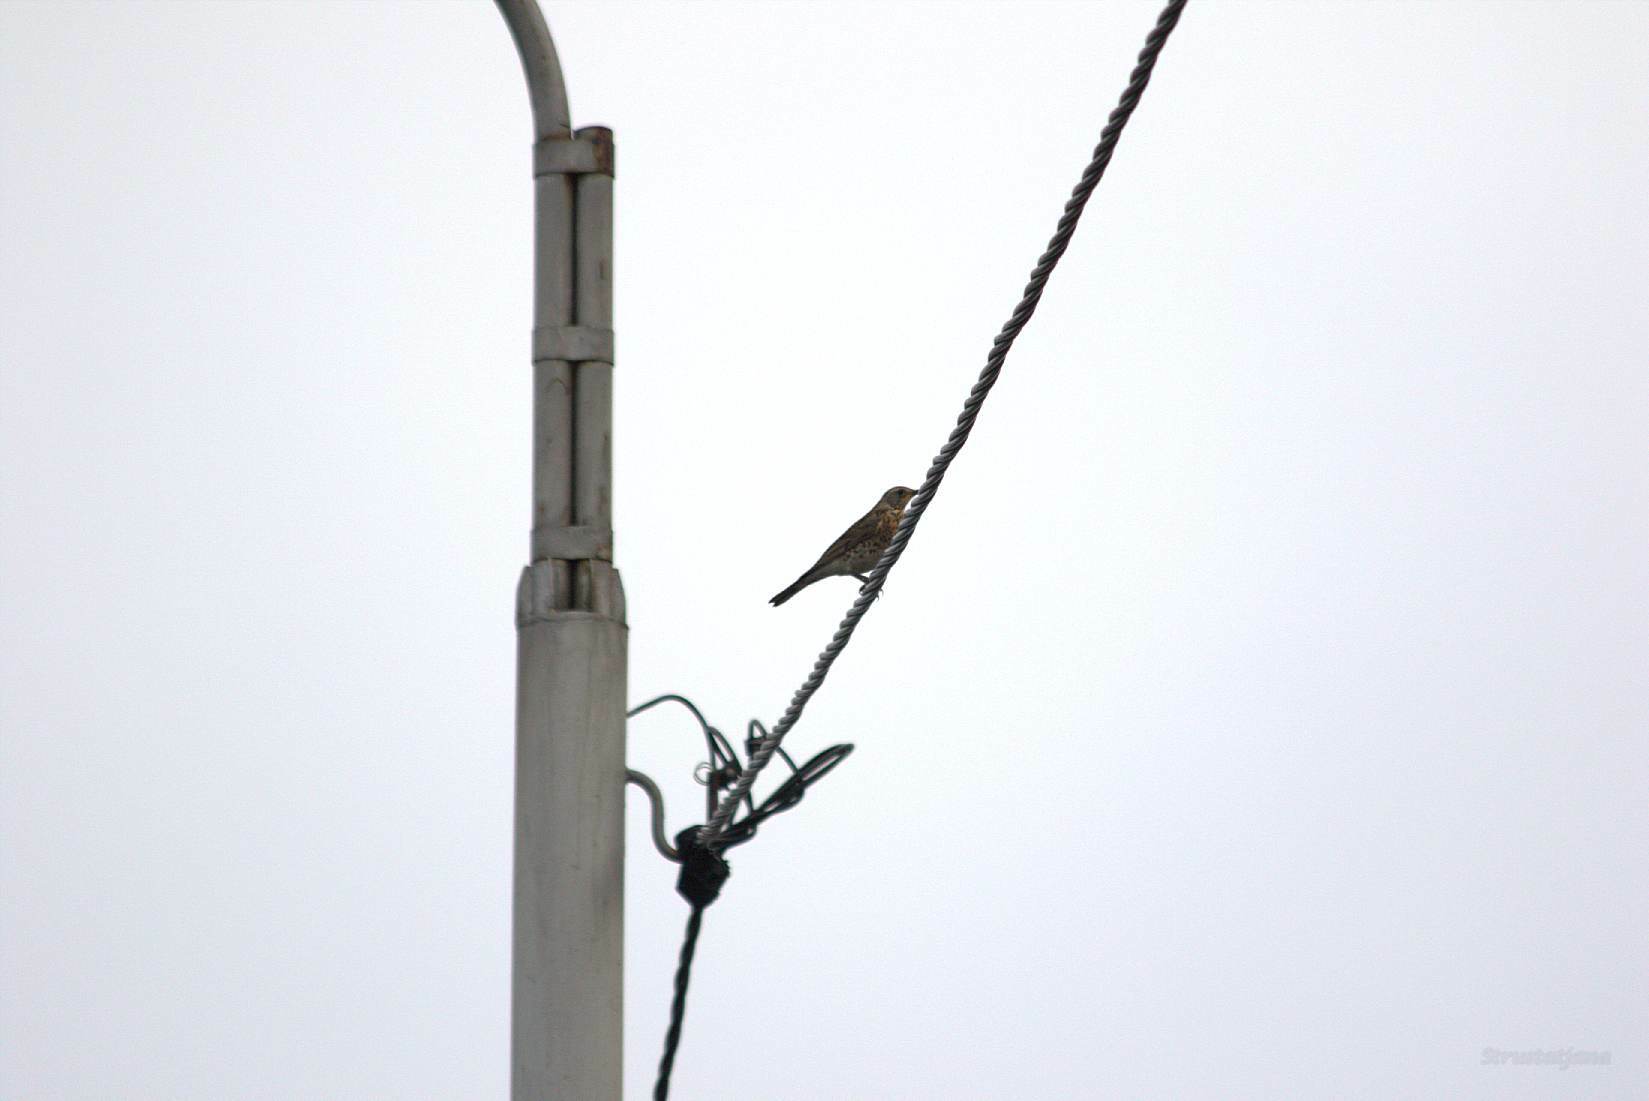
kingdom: Animalia
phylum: Chordata
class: Aves
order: Passeriformes
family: Turdidae
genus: Turdus
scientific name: Turdus pilaris
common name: Fieldfare
